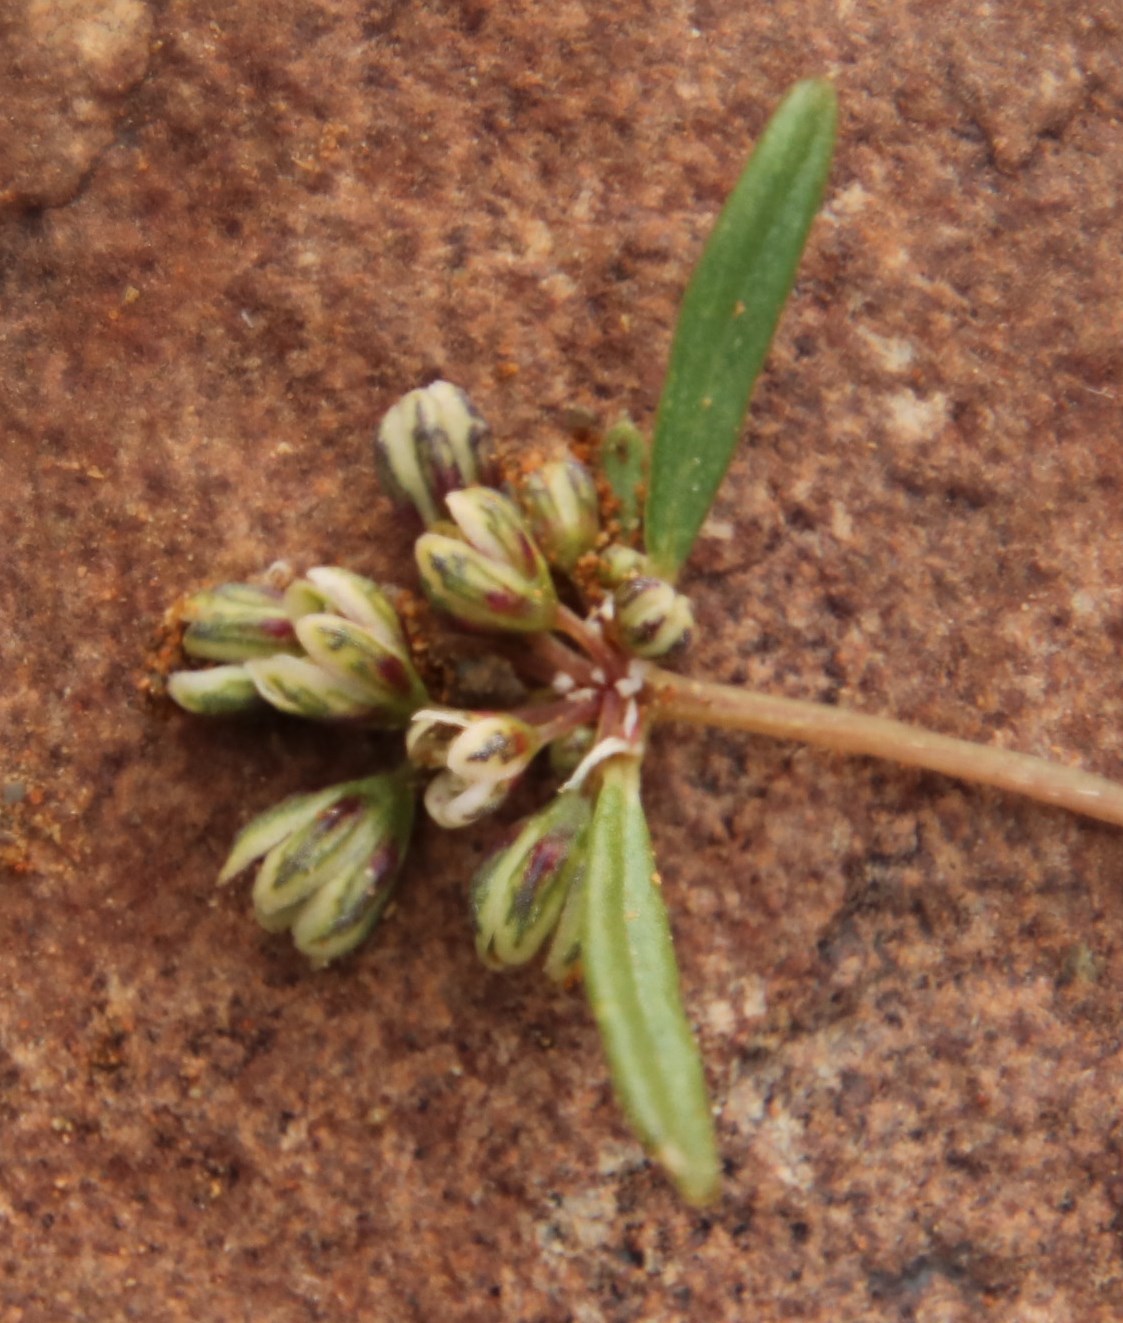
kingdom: Plantae
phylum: Tracheophyta
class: Magnoliopsida
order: Caryophyllales
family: Gisekiaceae
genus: Gisekia
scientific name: Gisekia pharnaceoides
